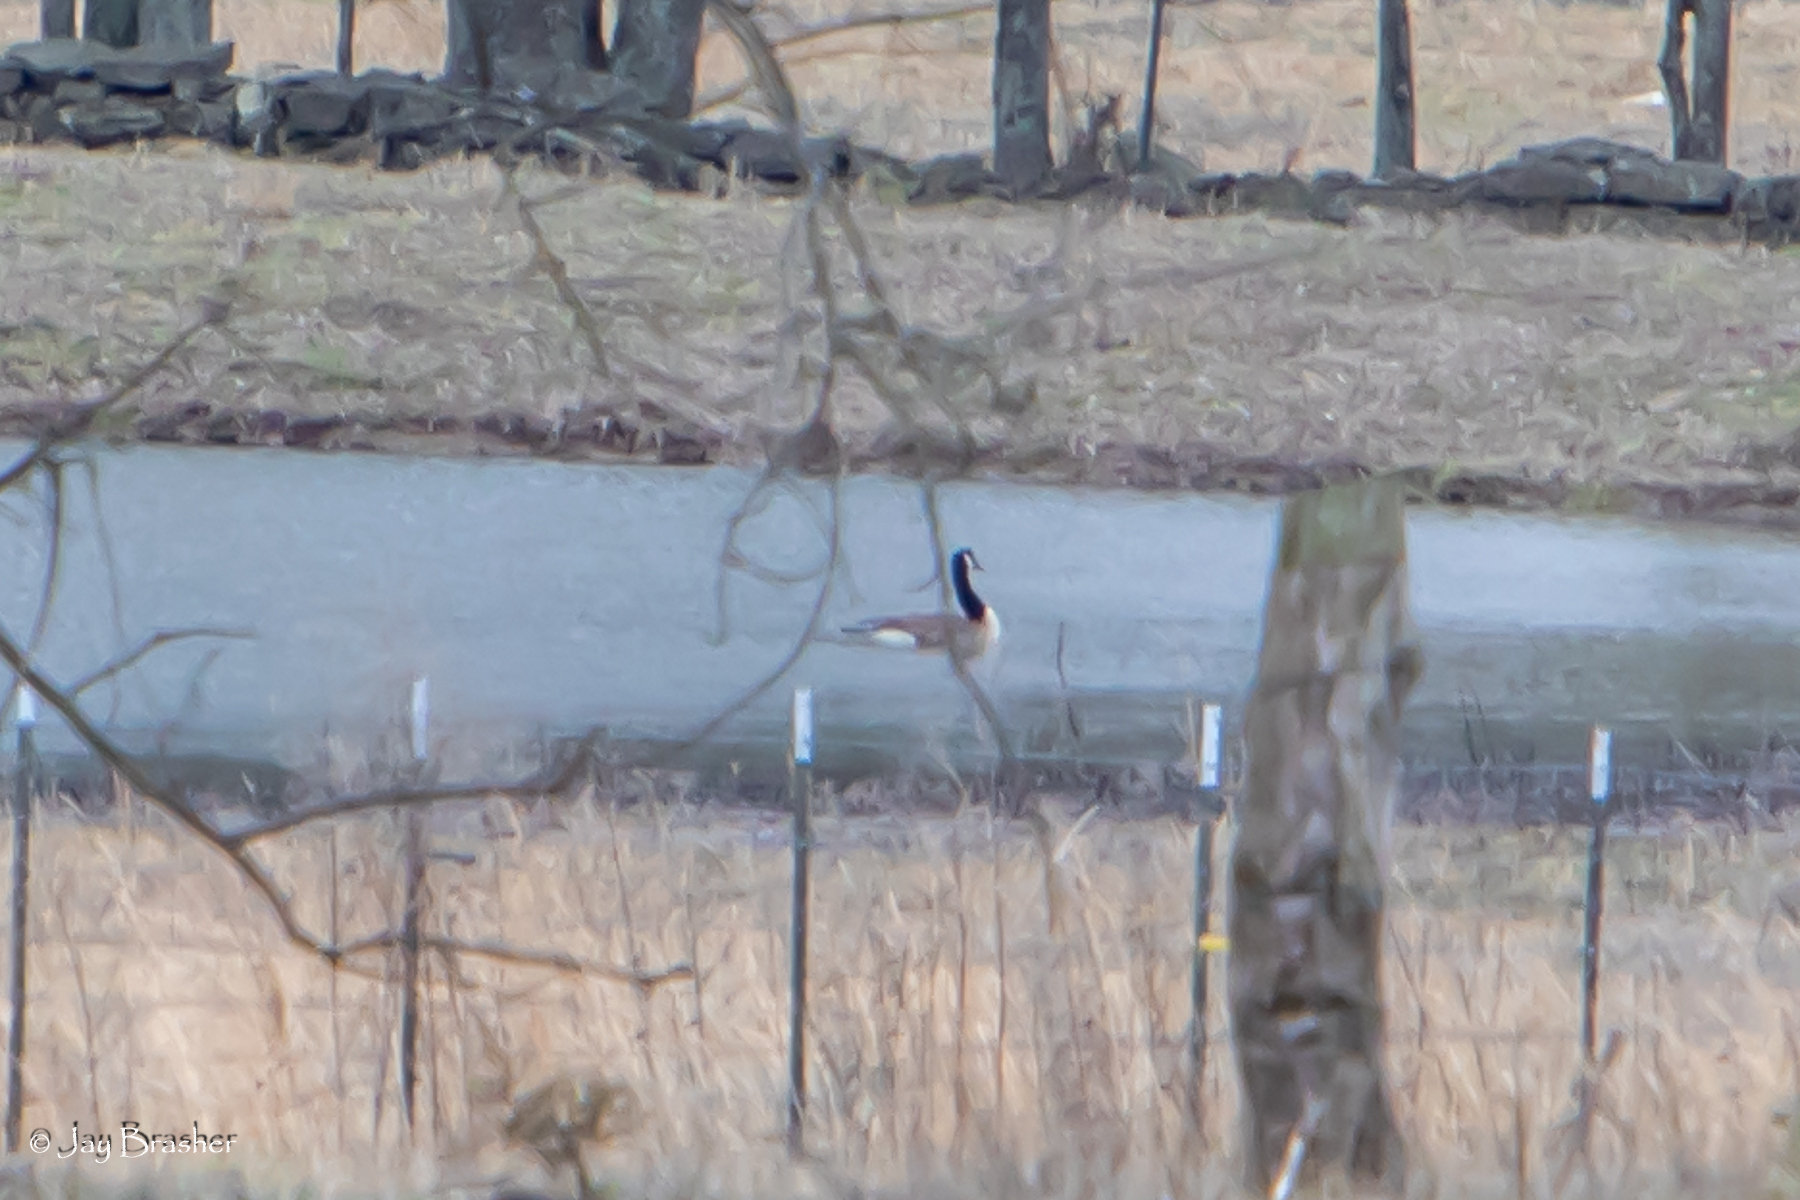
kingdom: Animalia
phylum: Chordata
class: Aves
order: Anseriformes
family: Anatidae
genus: Branta
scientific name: Branta canadensis
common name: Canada goose
